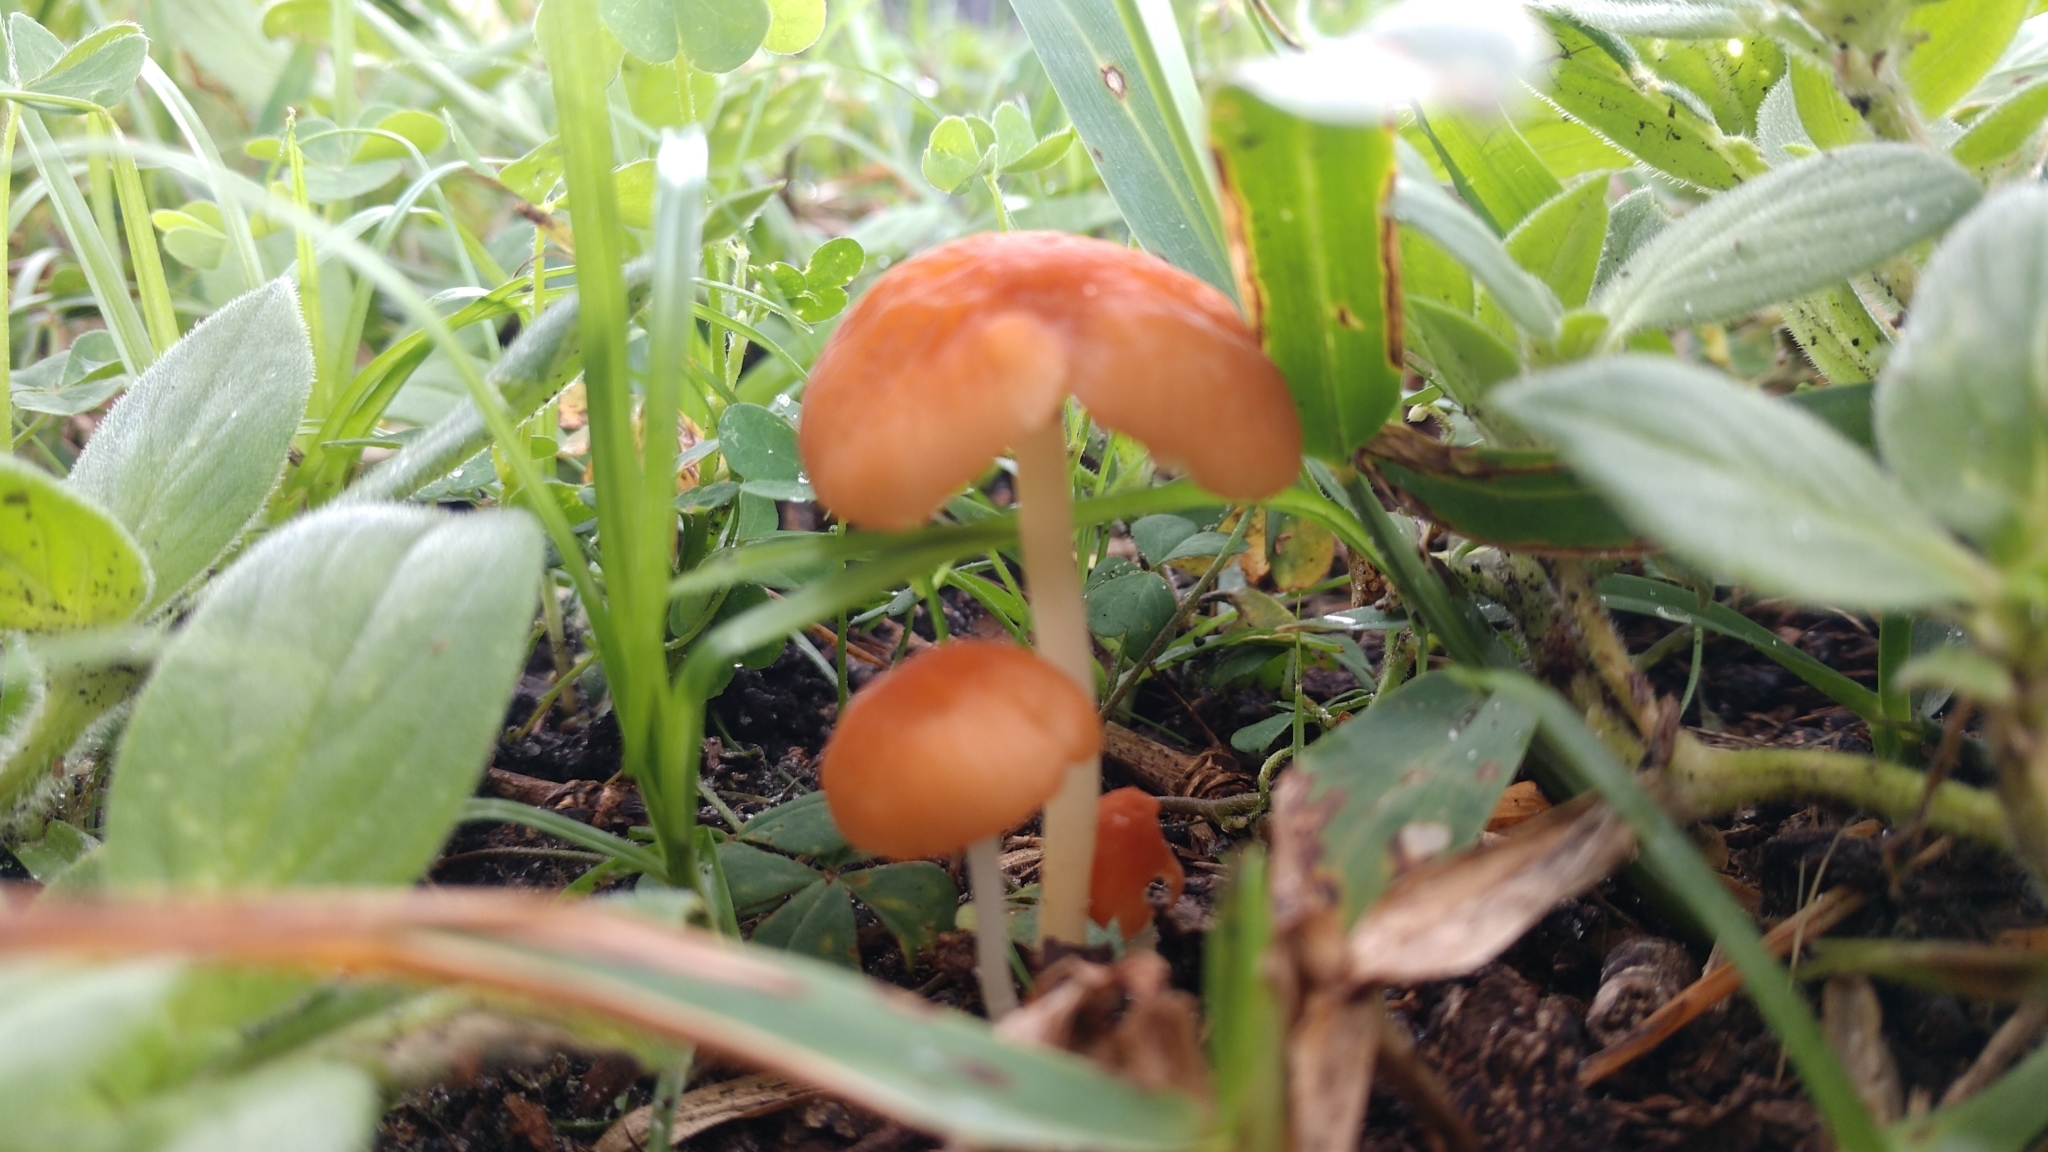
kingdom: Fungi
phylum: Basidiomycota
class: Agaricomycetes
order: Agaricales
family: Marasmiaceae
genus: Marasmius
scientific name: Marasmius vagus
